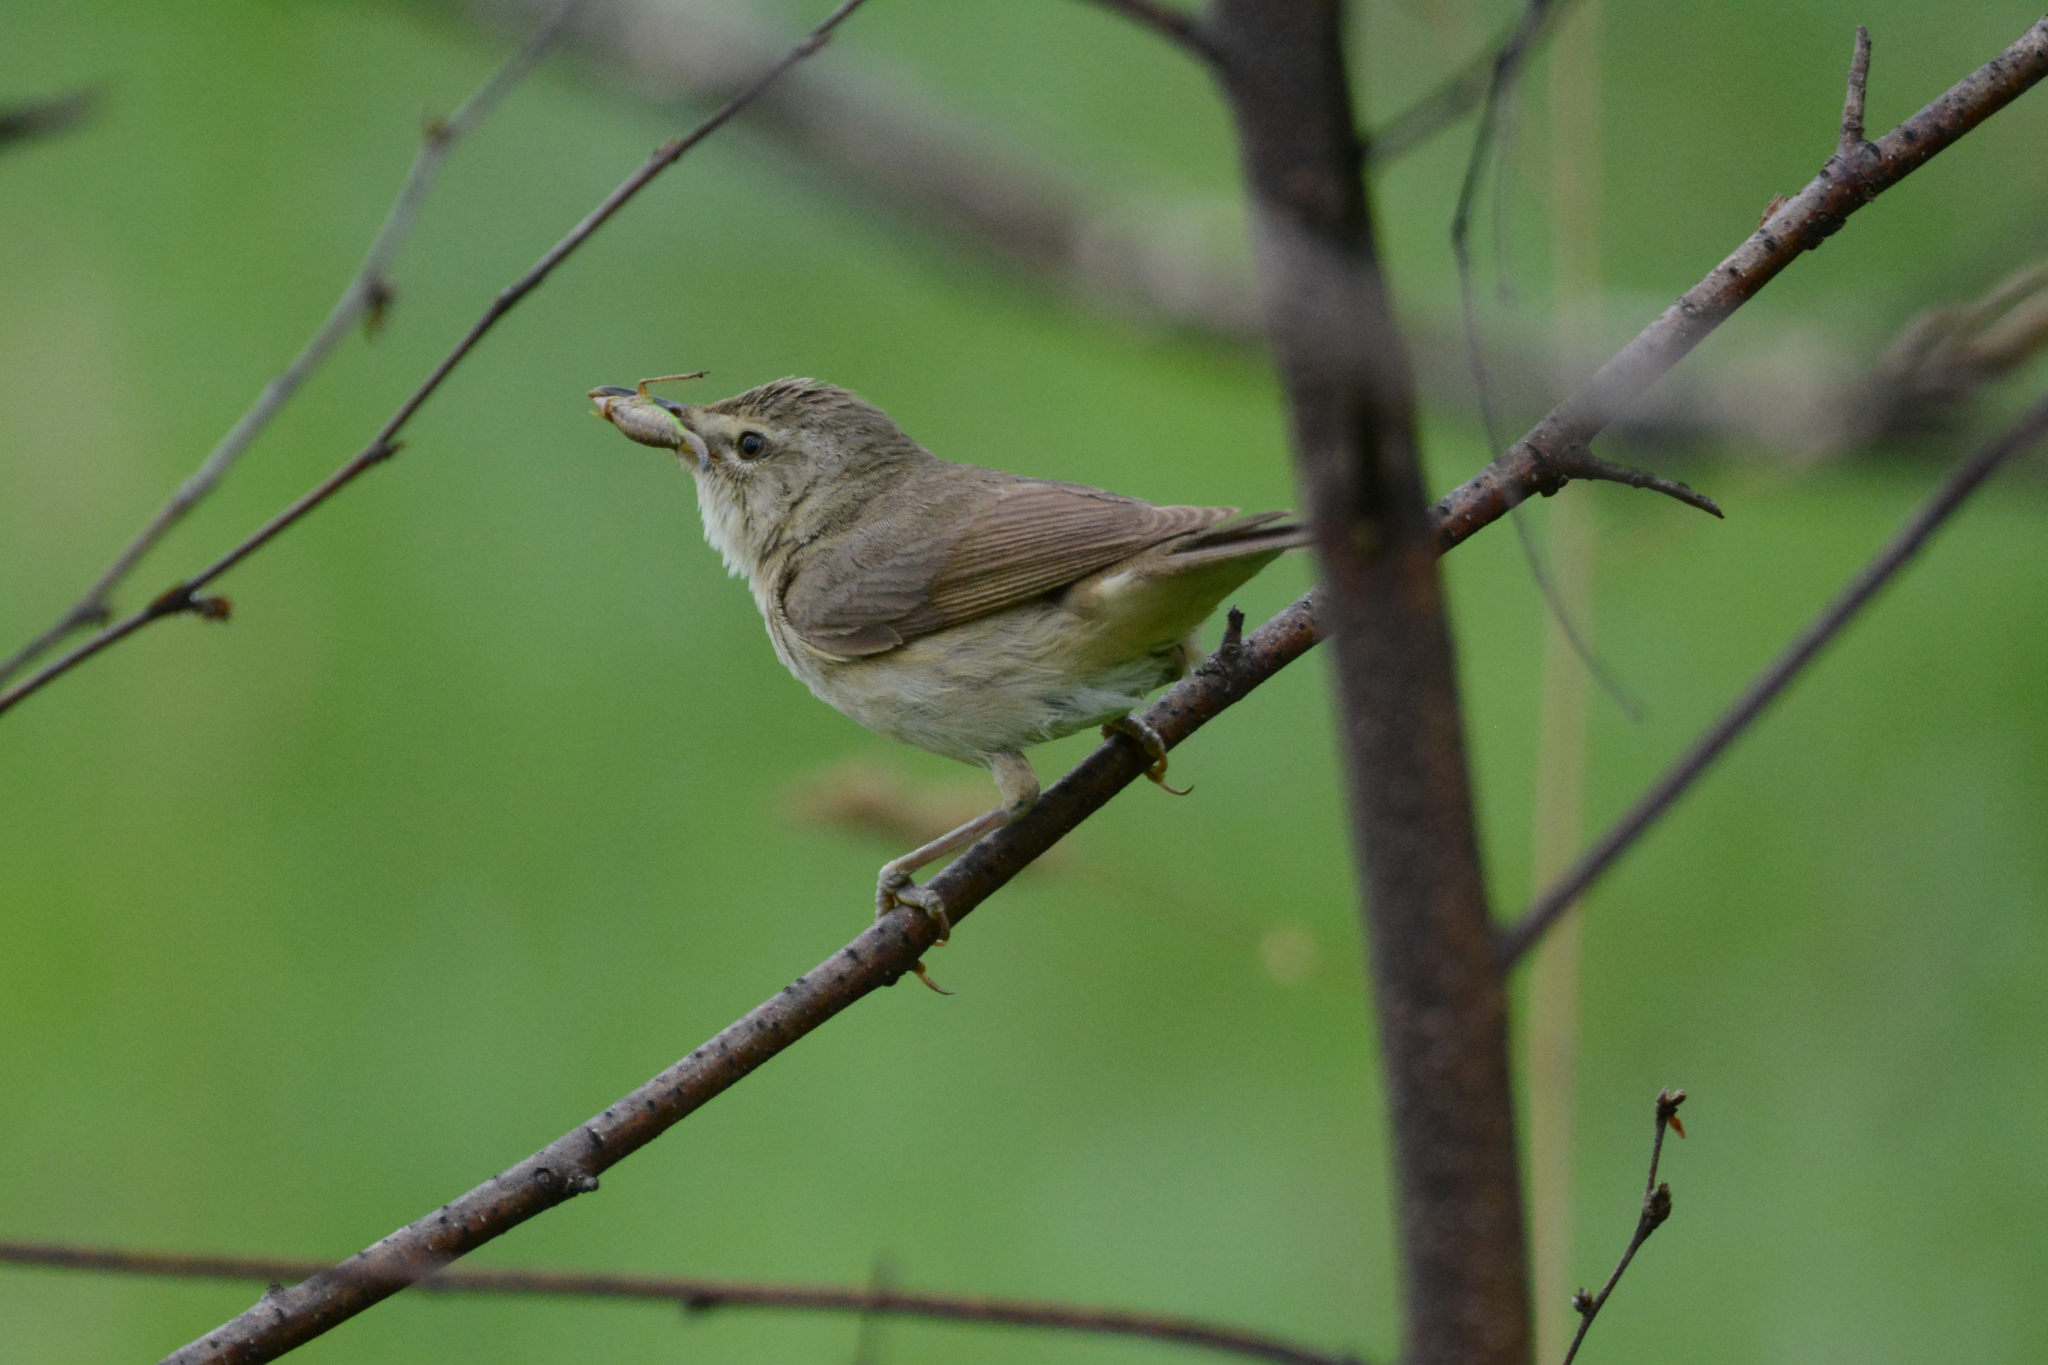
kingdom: Animalia
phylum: Chordata
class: Aves
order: Passeriformes
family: Acrocephalidae
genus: Acrocephalus
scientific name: Acrocephalus dumetorum
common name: Blyth's reed warbler
